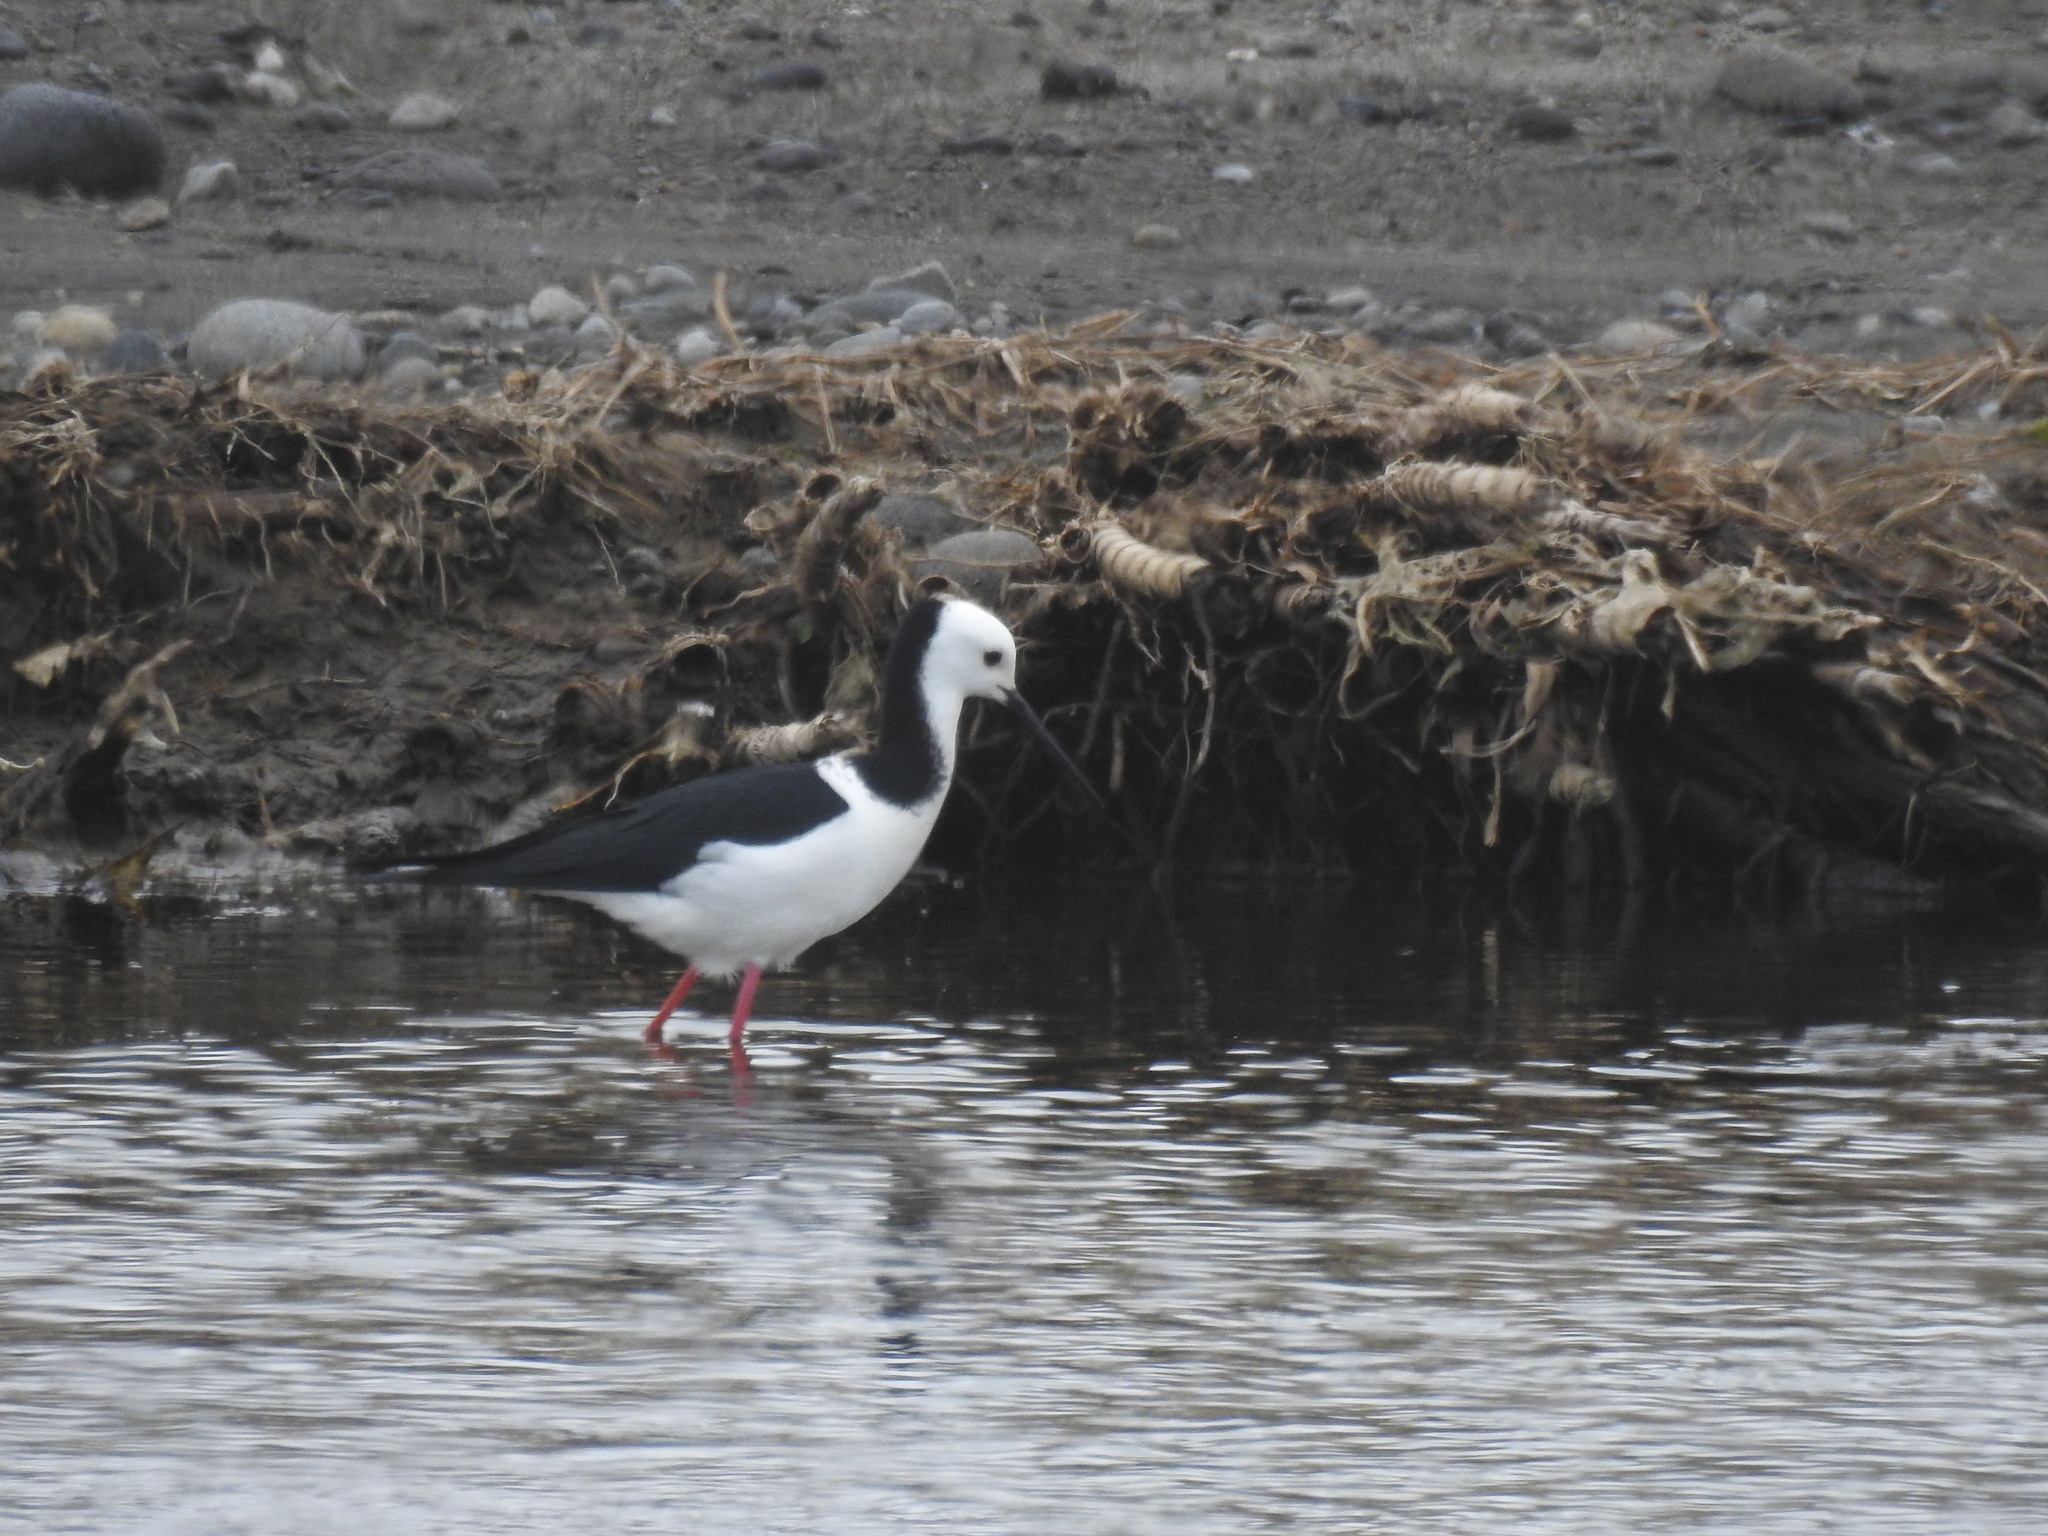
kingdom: Animalia
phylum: Chordata
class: Aves
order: Charadriiformes
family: Recurvirostridae
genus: Himantopus
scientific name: Himantopus leucocephalus
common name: White-headed stilt
